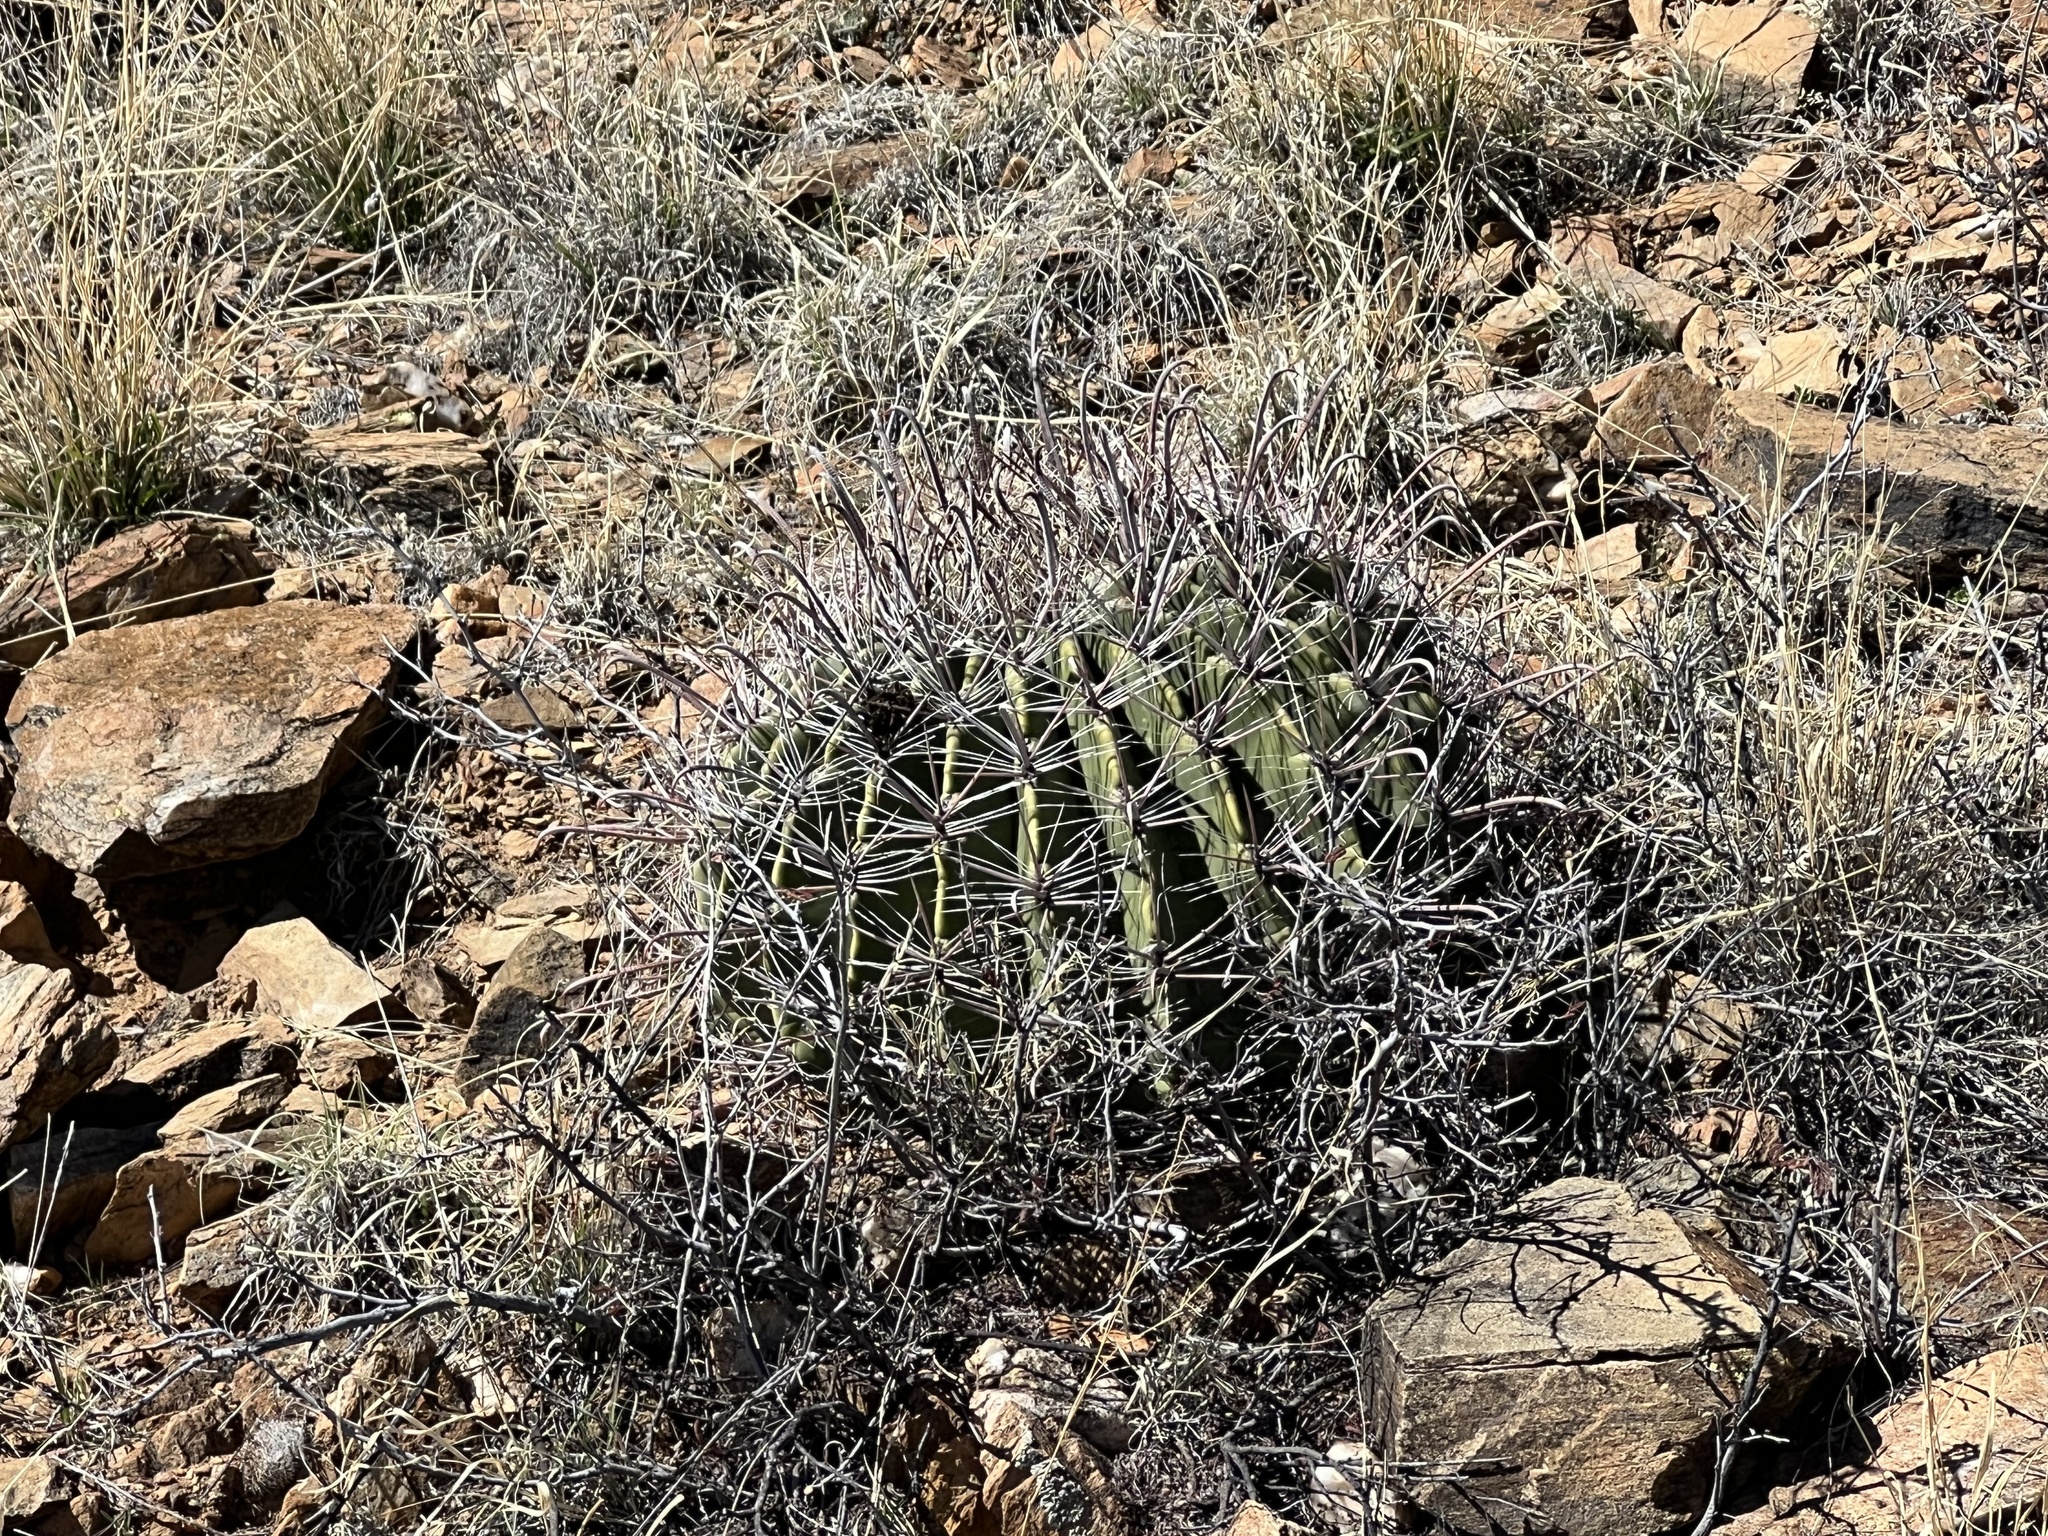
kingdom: Plantae
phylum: Tracheophyta
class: Magnoliopsida
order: Caryophyllales
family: Cactaceae
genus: Ferocactus
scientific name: Ferocactus wislizeni
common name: Candy barrel cactus
